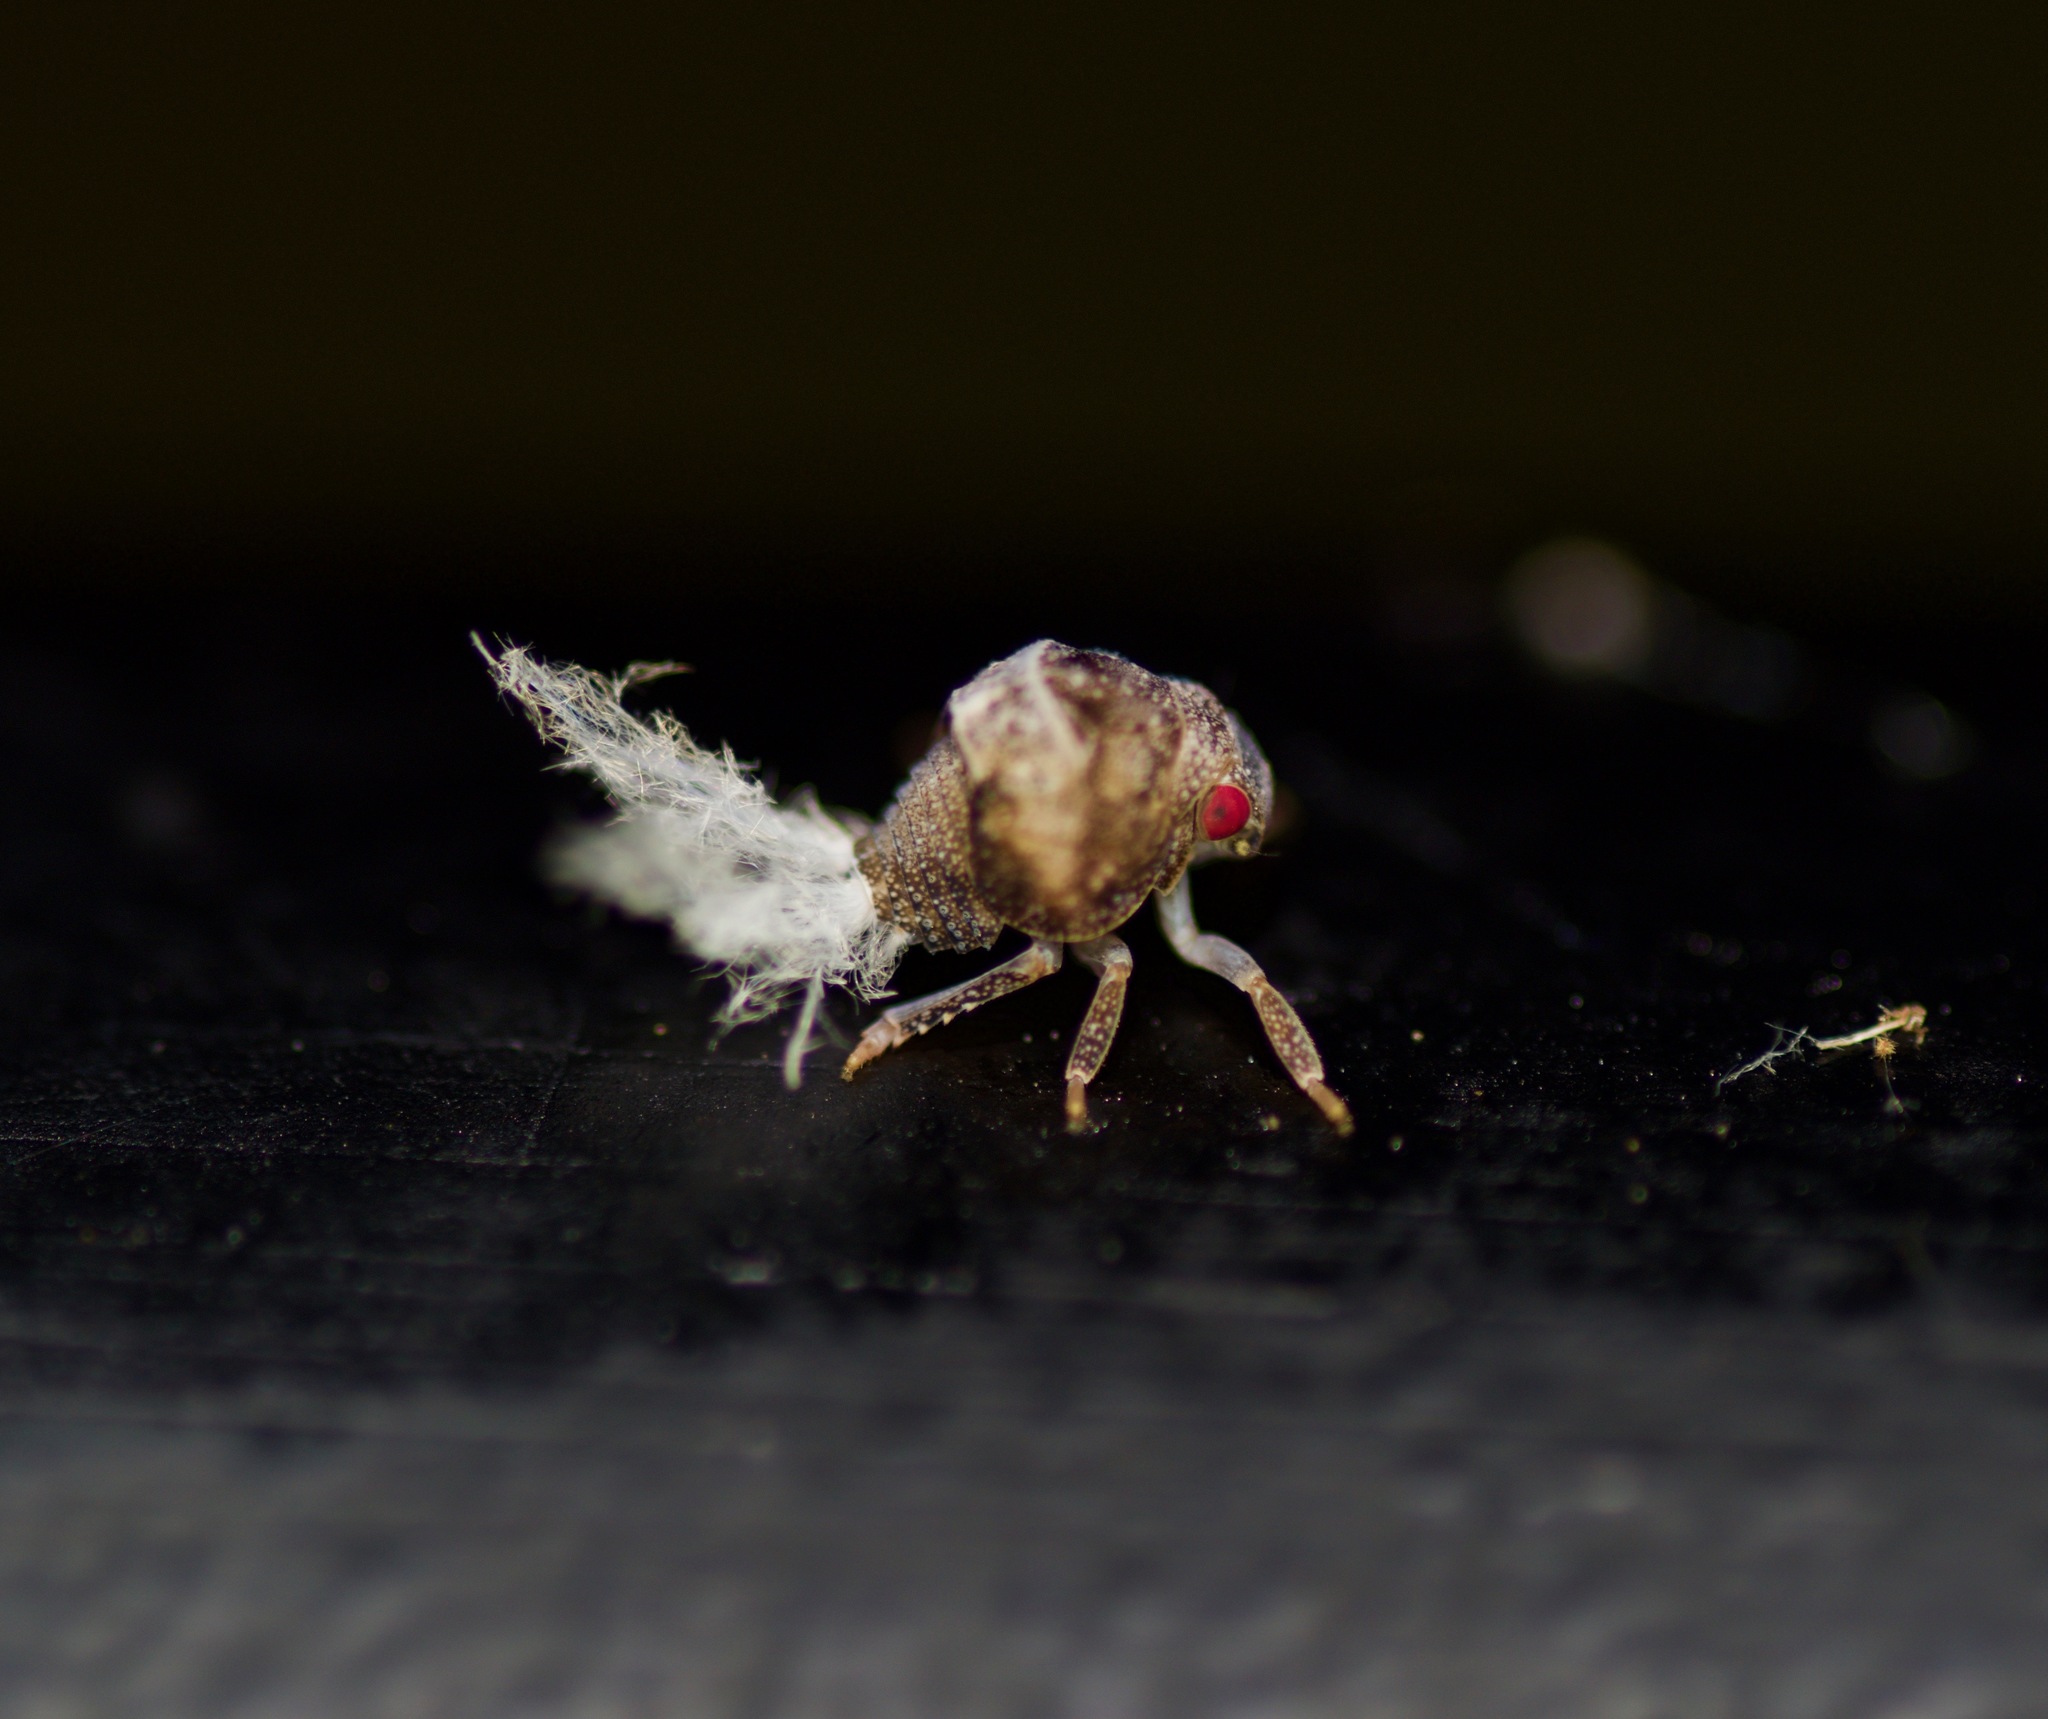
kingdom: Animalia
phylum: Arthropoda
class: Insecta
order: Hemiptera
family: Acanaloniidae
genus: Acanalonia
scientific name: Acanalonia bivittata
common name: Two-striped planthopper
